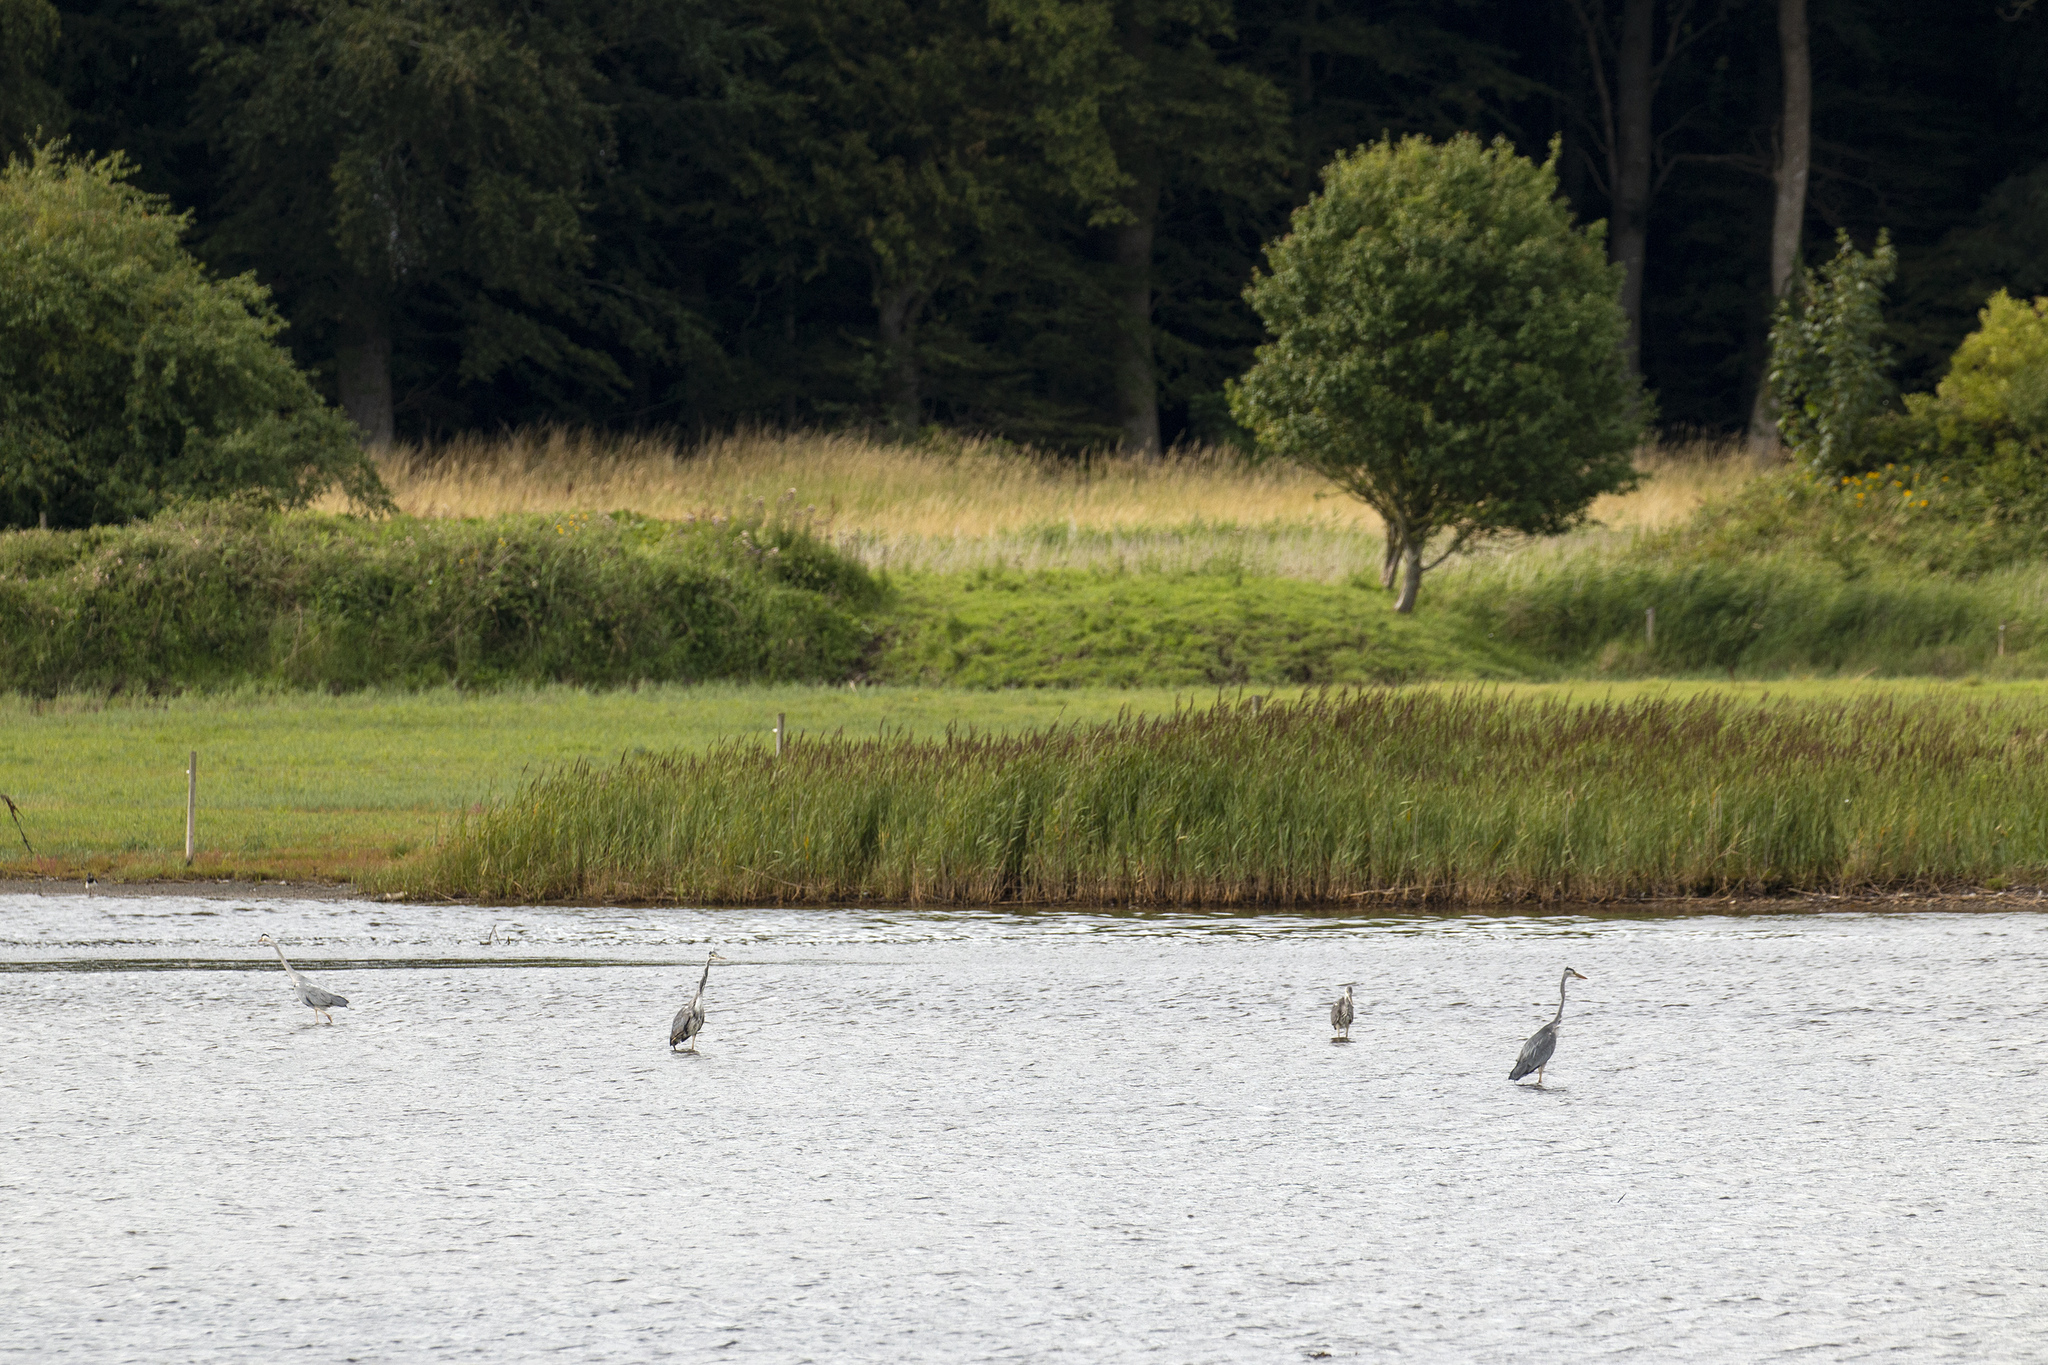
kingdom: Animalia
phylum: Chordata
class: Aves
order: Pelecaniformes
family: Ardeidae
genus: Ardea
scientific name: Ardea cinerea
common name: Grey heron
